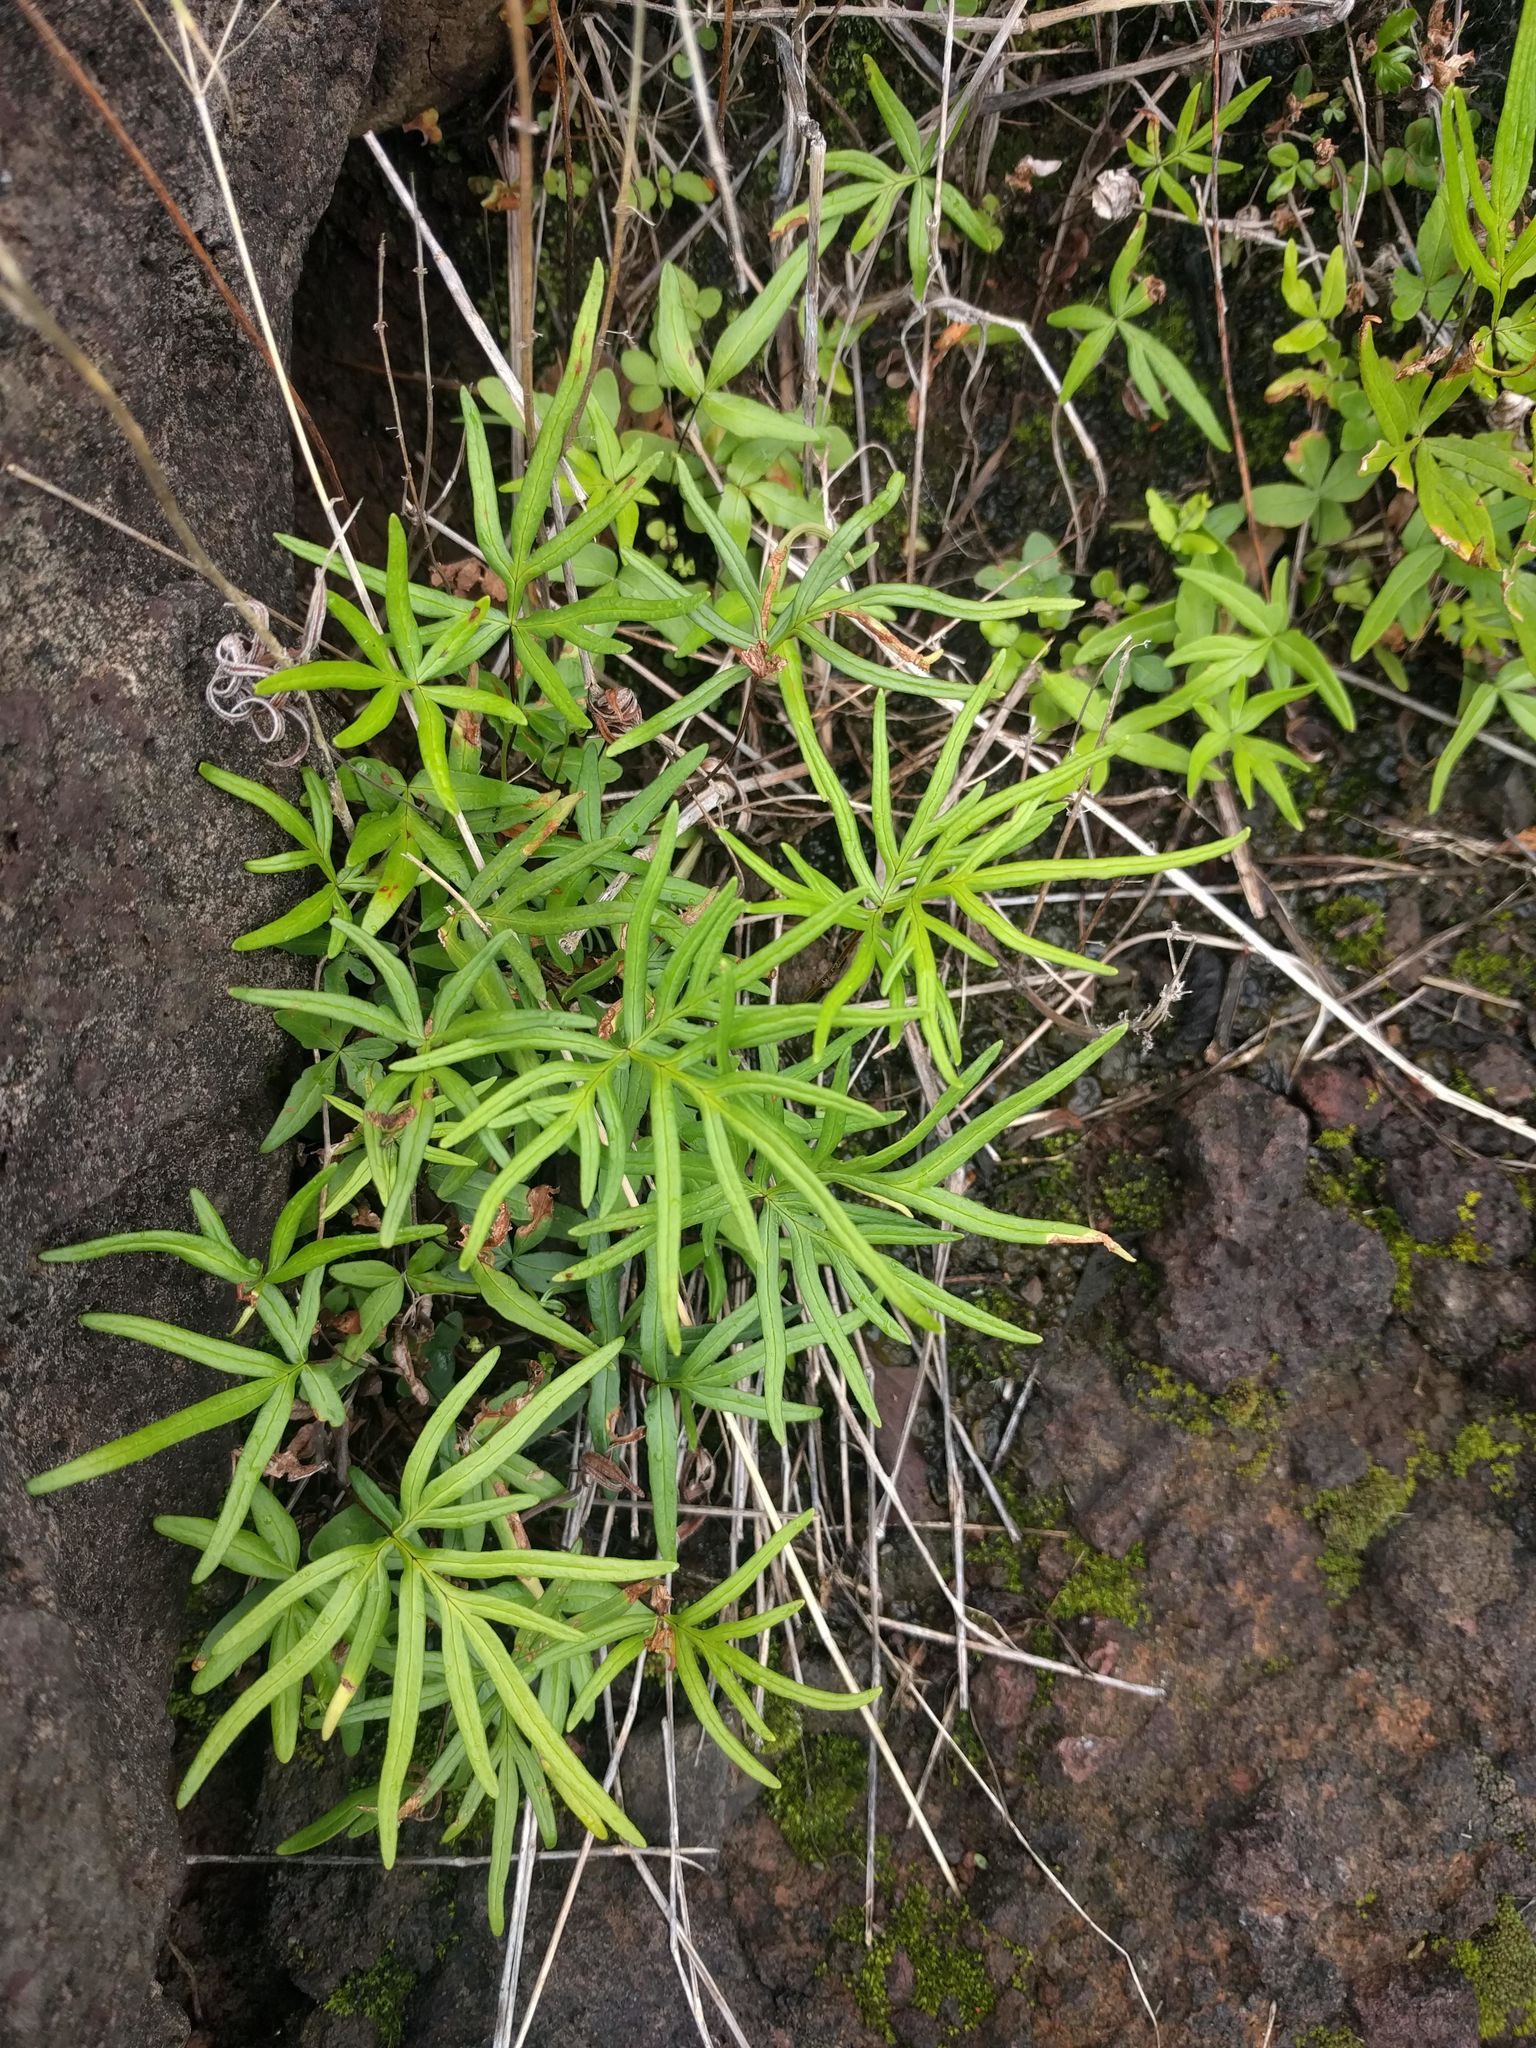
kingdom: Plantae
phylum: Tracheophyta
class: Polypodiopsida
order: Polypodiales
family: Pteridaceae
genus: Doryopteris
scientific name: Doryopteris subdecipiens
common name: Waianae mountain digit fern
